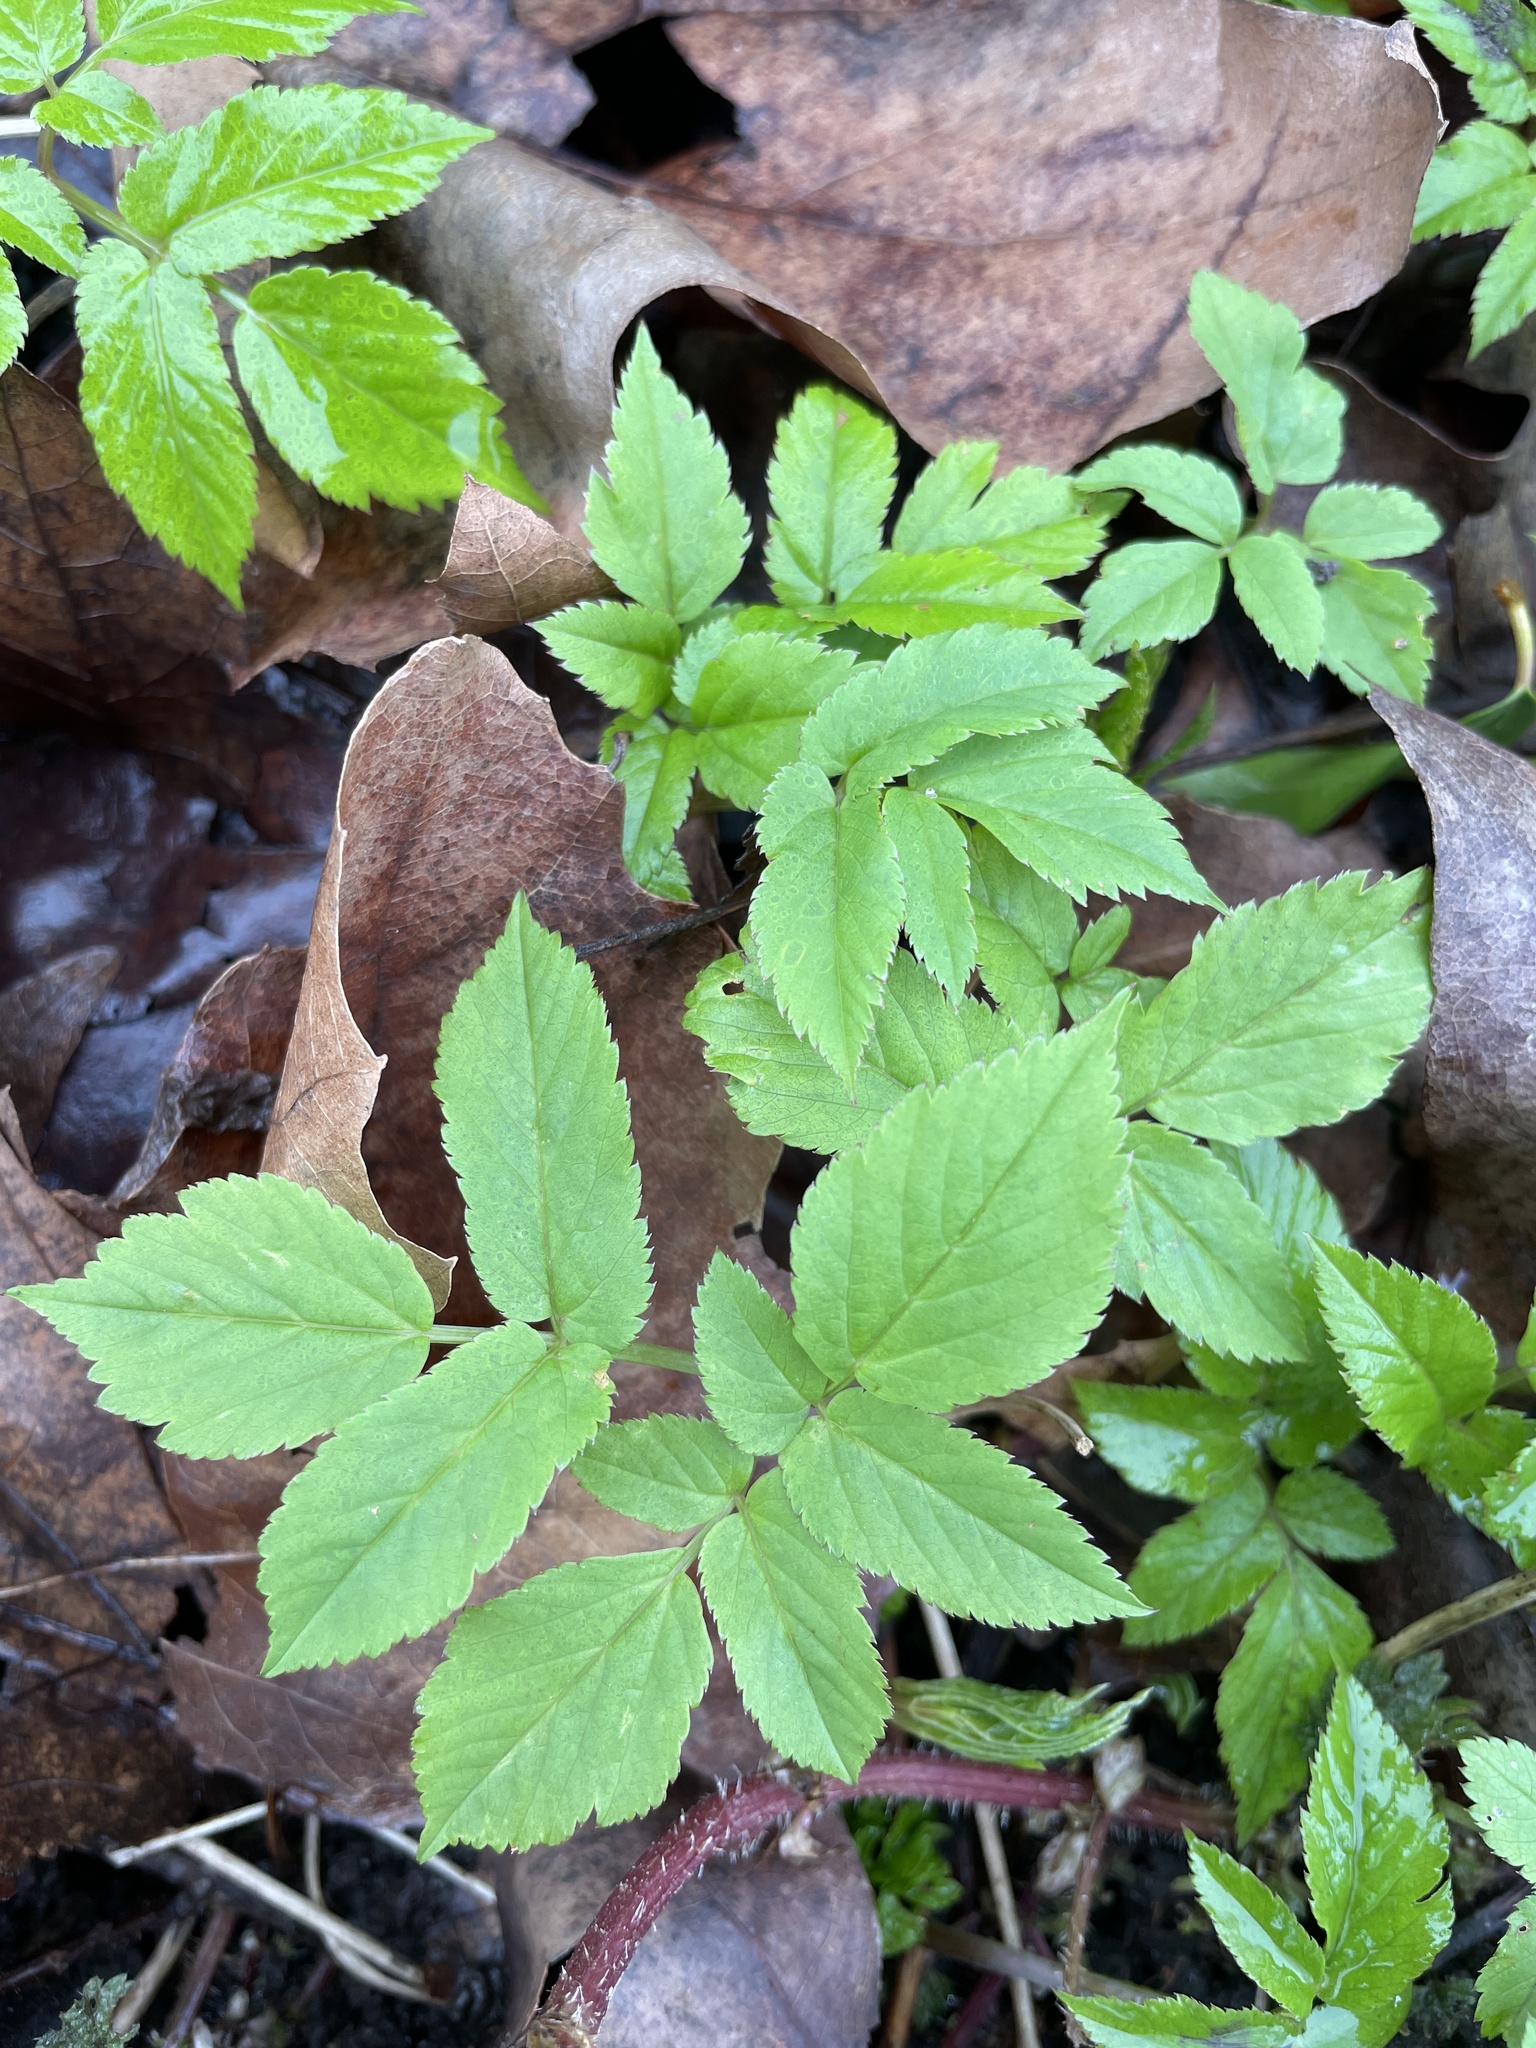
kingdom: Plantae
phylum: Tracheophyta
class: Magnoliopsida
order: Apiales
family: Apiaceae
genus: Aegopodium
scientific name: Aegopodium podagraria
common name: Ground-elder
